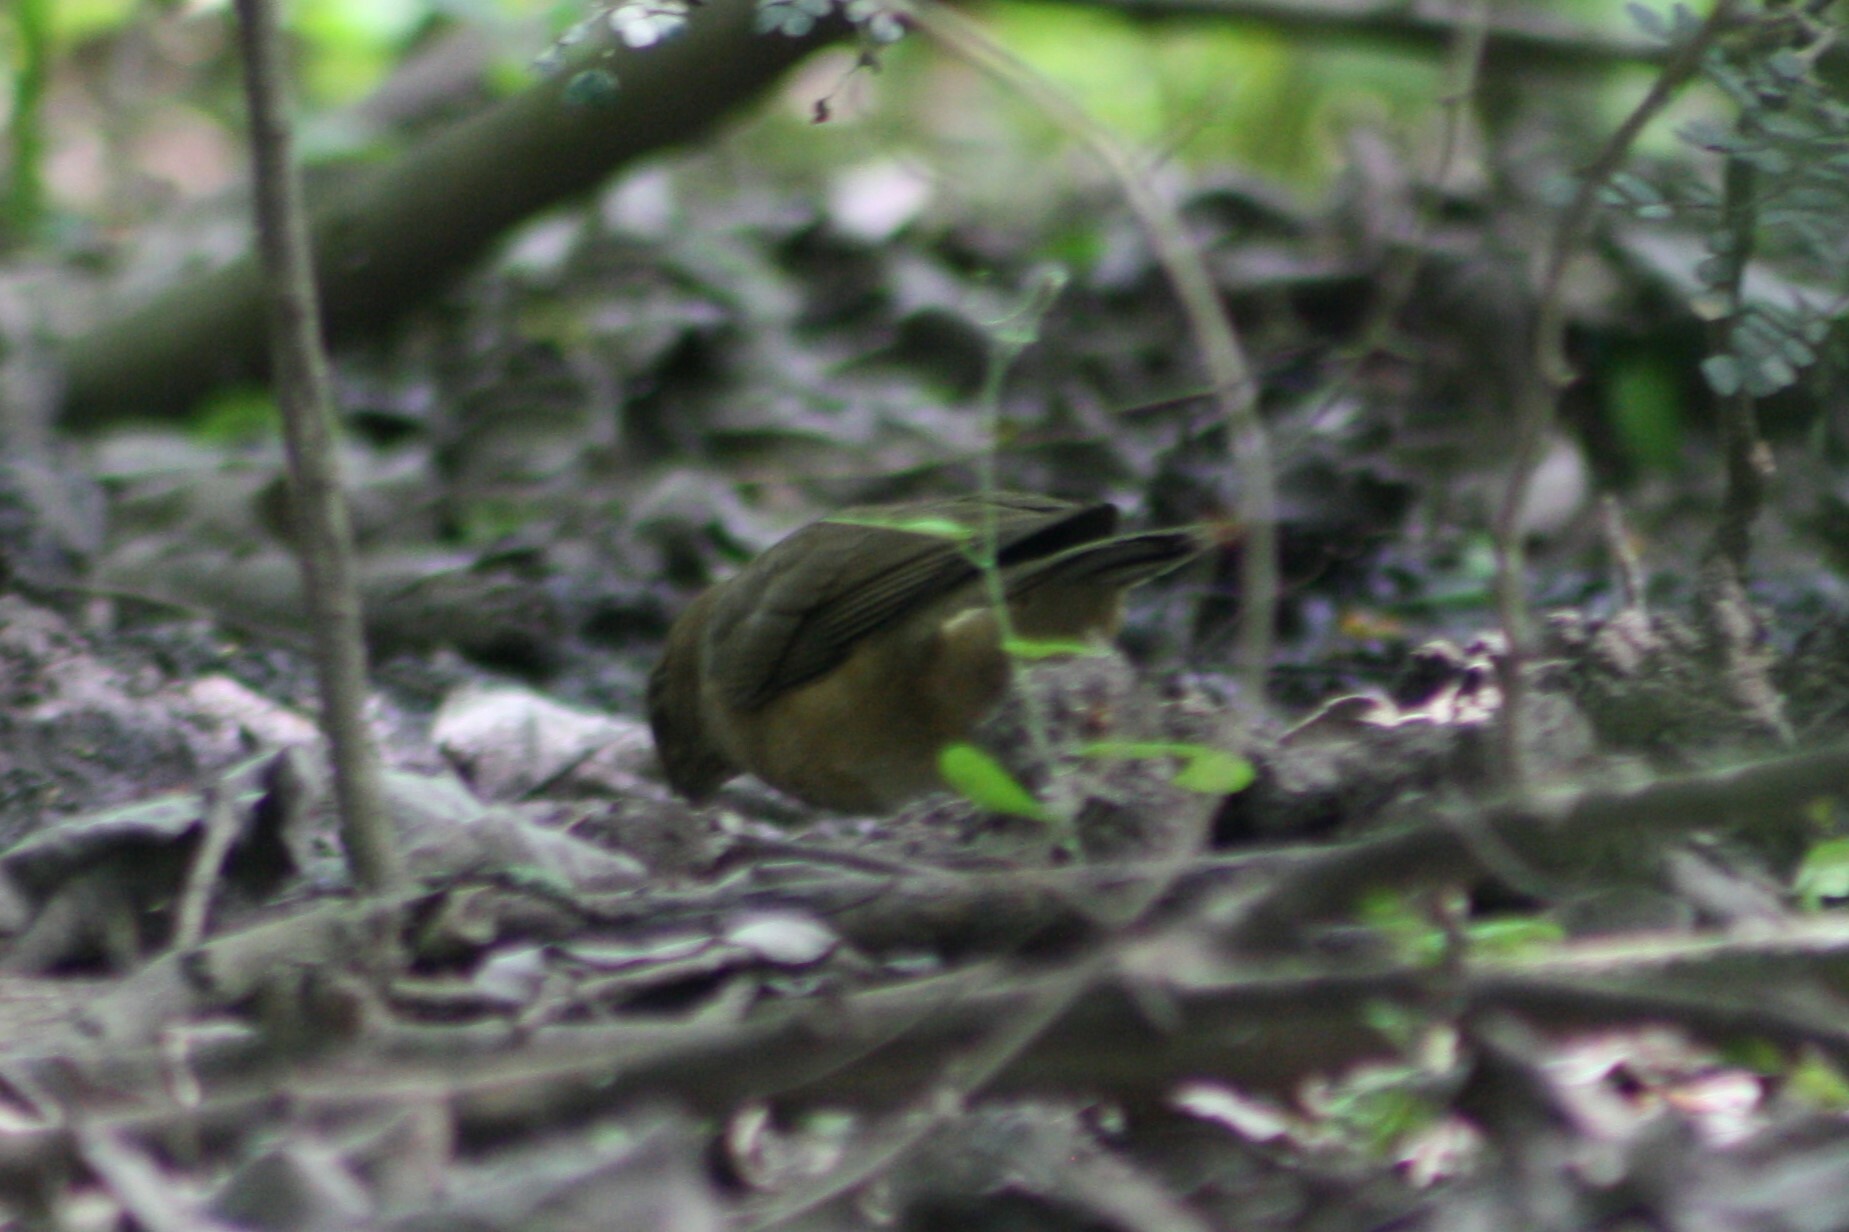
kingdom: Animalia
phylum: Chordata
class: Aves
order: Passeriformes
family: Turdidae
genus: Turdus
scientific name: Turdus grayi
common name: Clay-colored thrush
